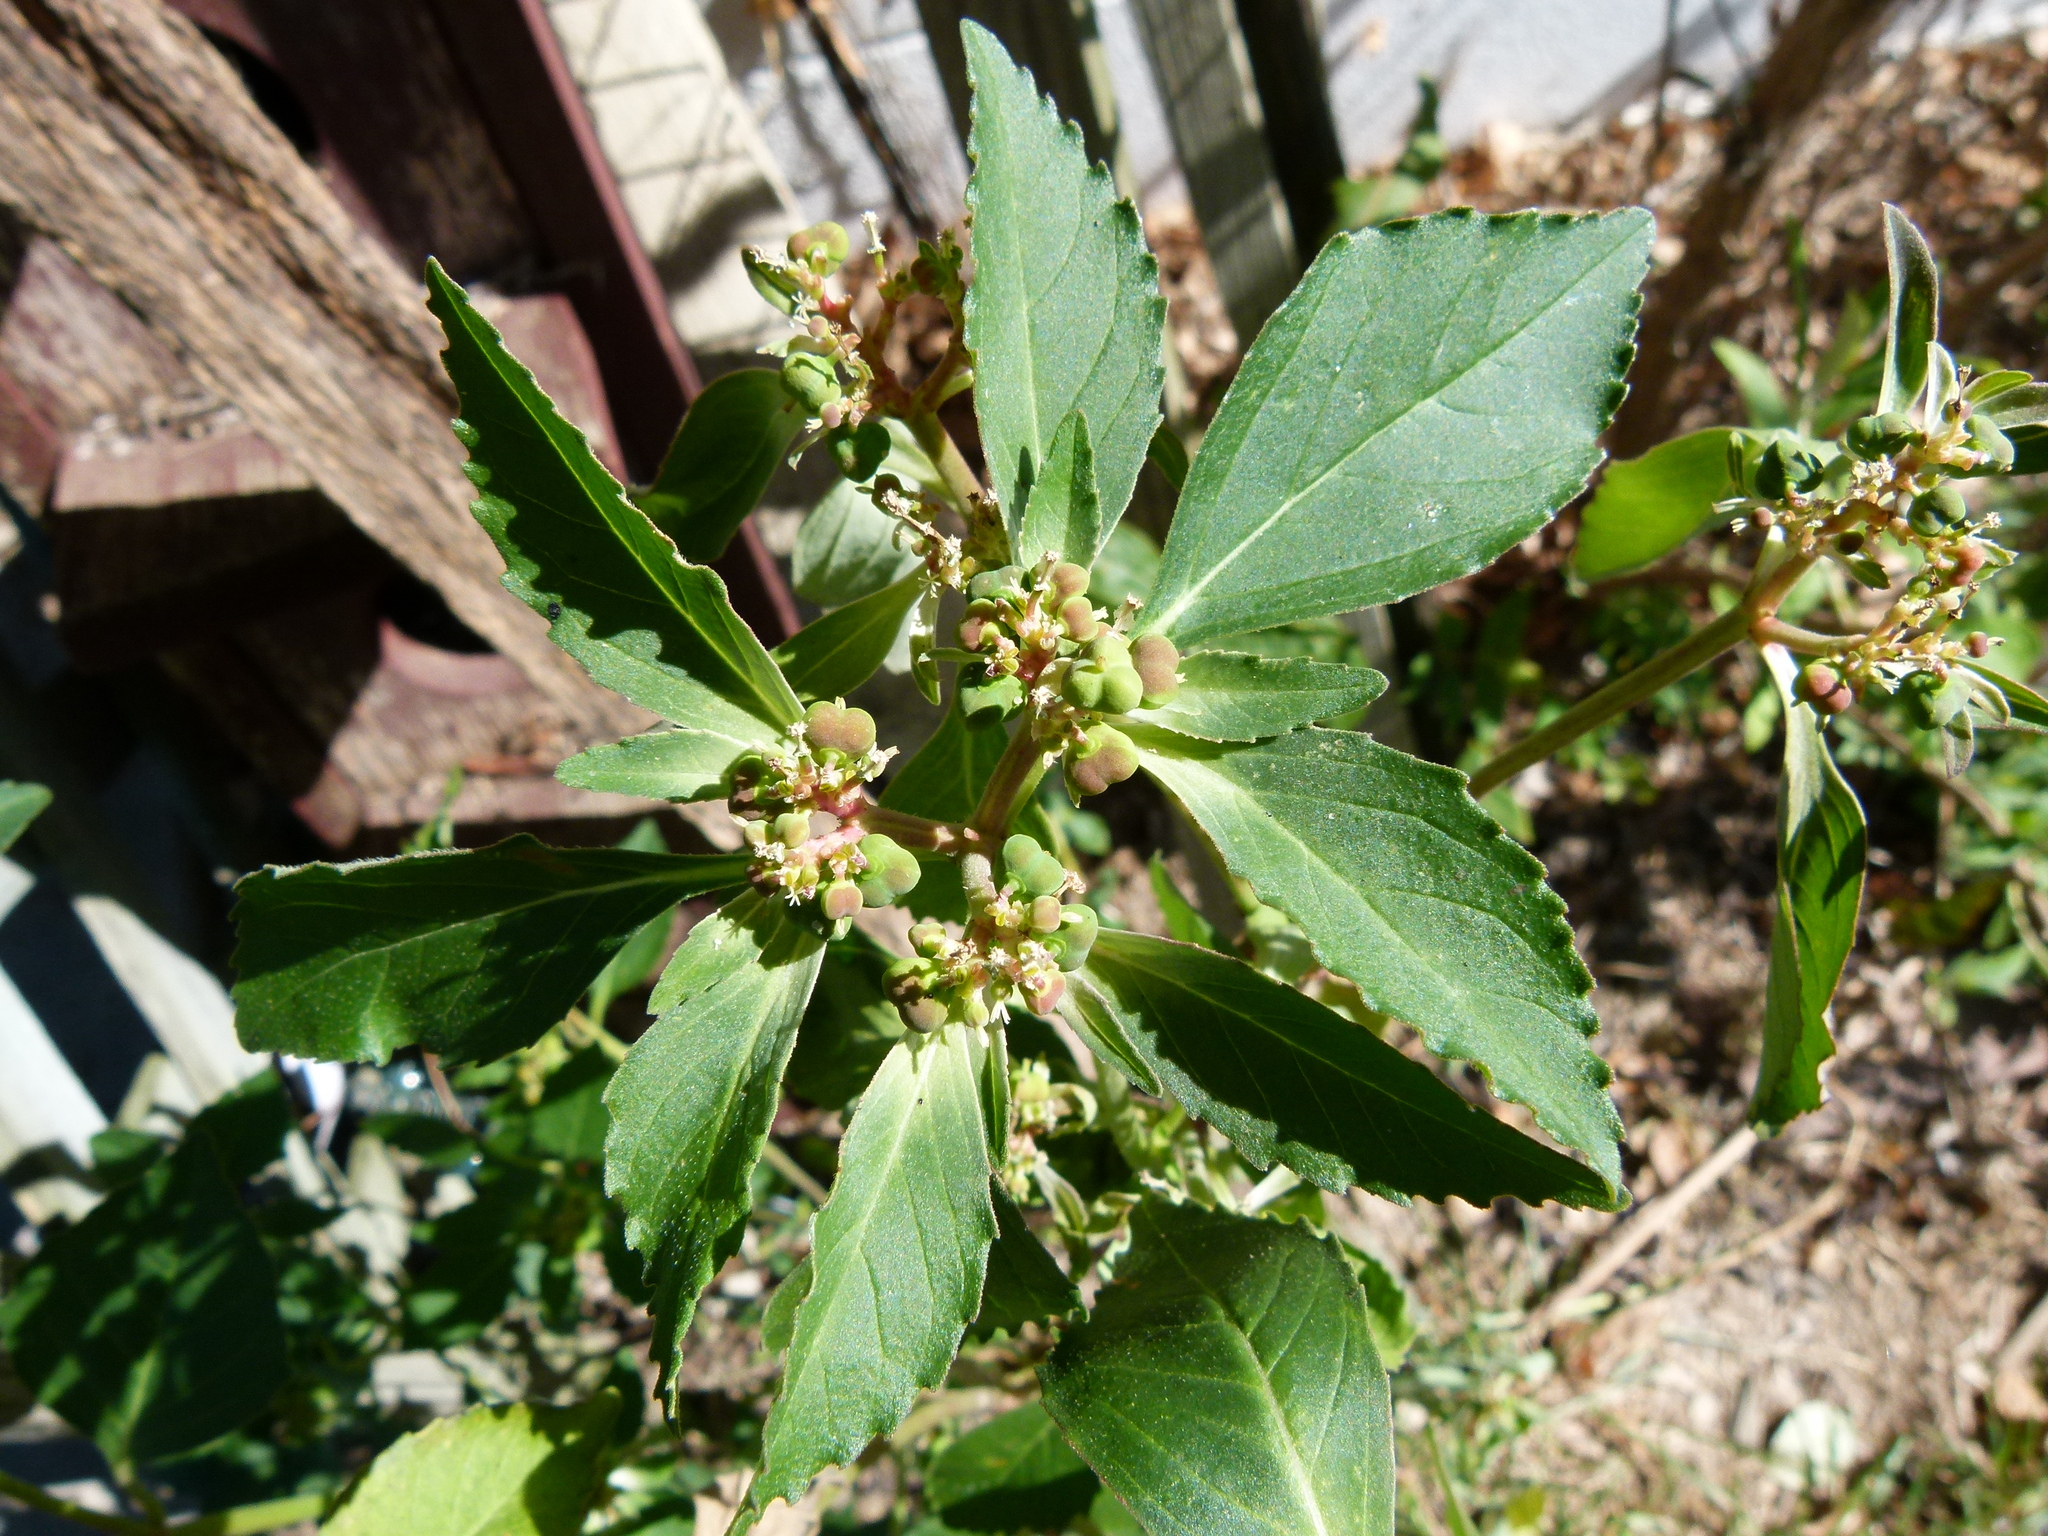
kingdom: Plantae
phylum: Tracheophyta
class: Magnoliopsida
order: Malpighiales
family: Euphorbiaceae
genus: Euphorbia
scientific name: Euphorbia dentata
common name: Dentate spurge
